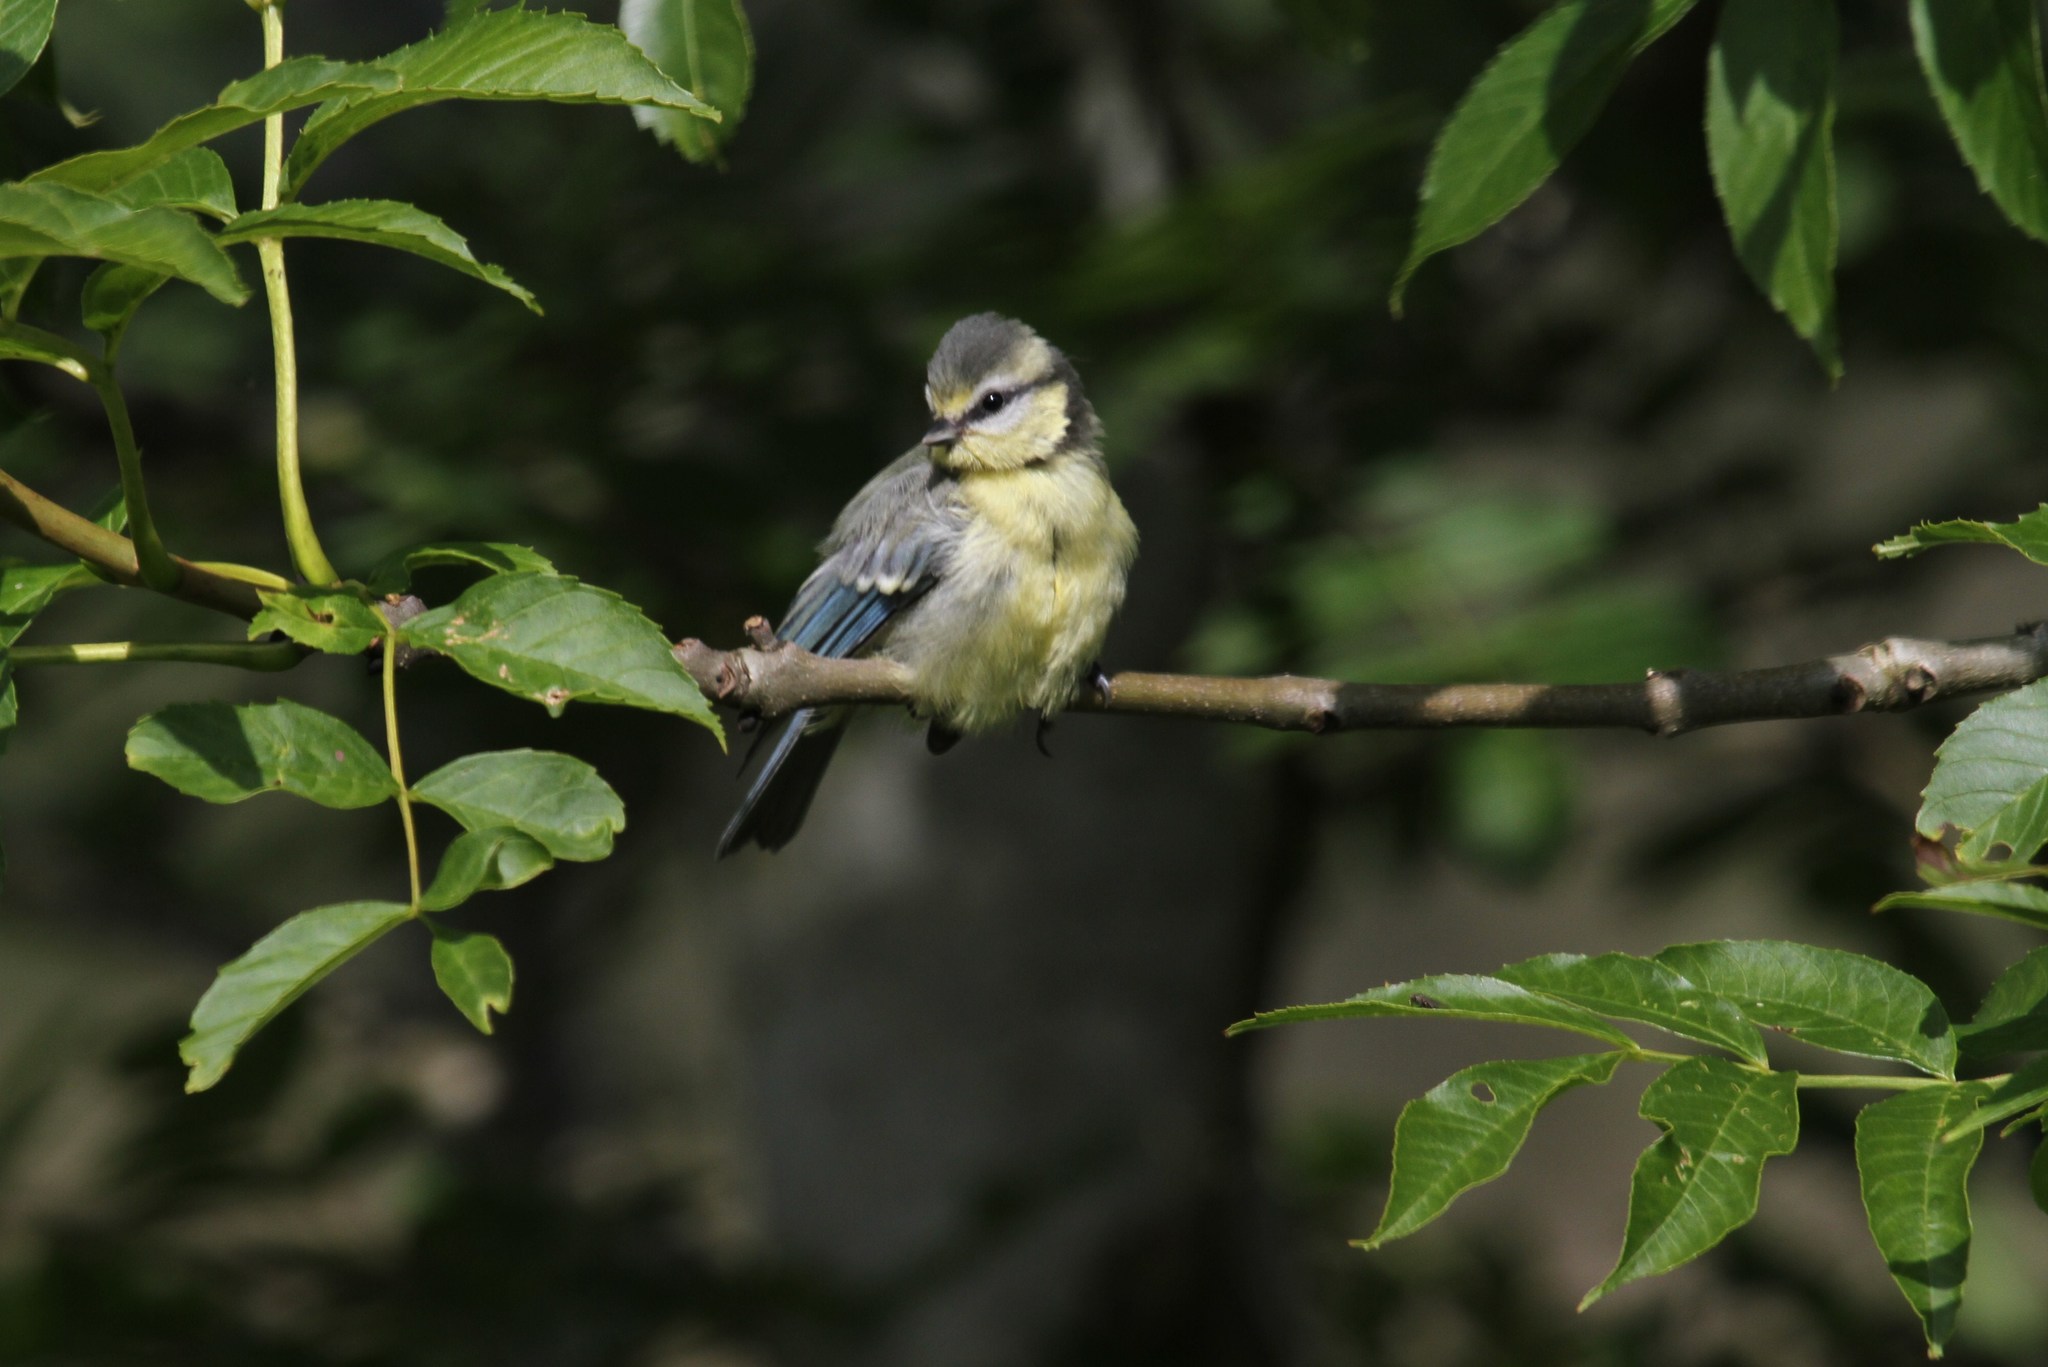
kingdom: Animalia
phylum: Chordata
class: Aves
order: Passeriformes
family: Paridae
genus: Cyanistes
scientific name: Cyanistes caeruleus
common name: Eurasian blue tit
